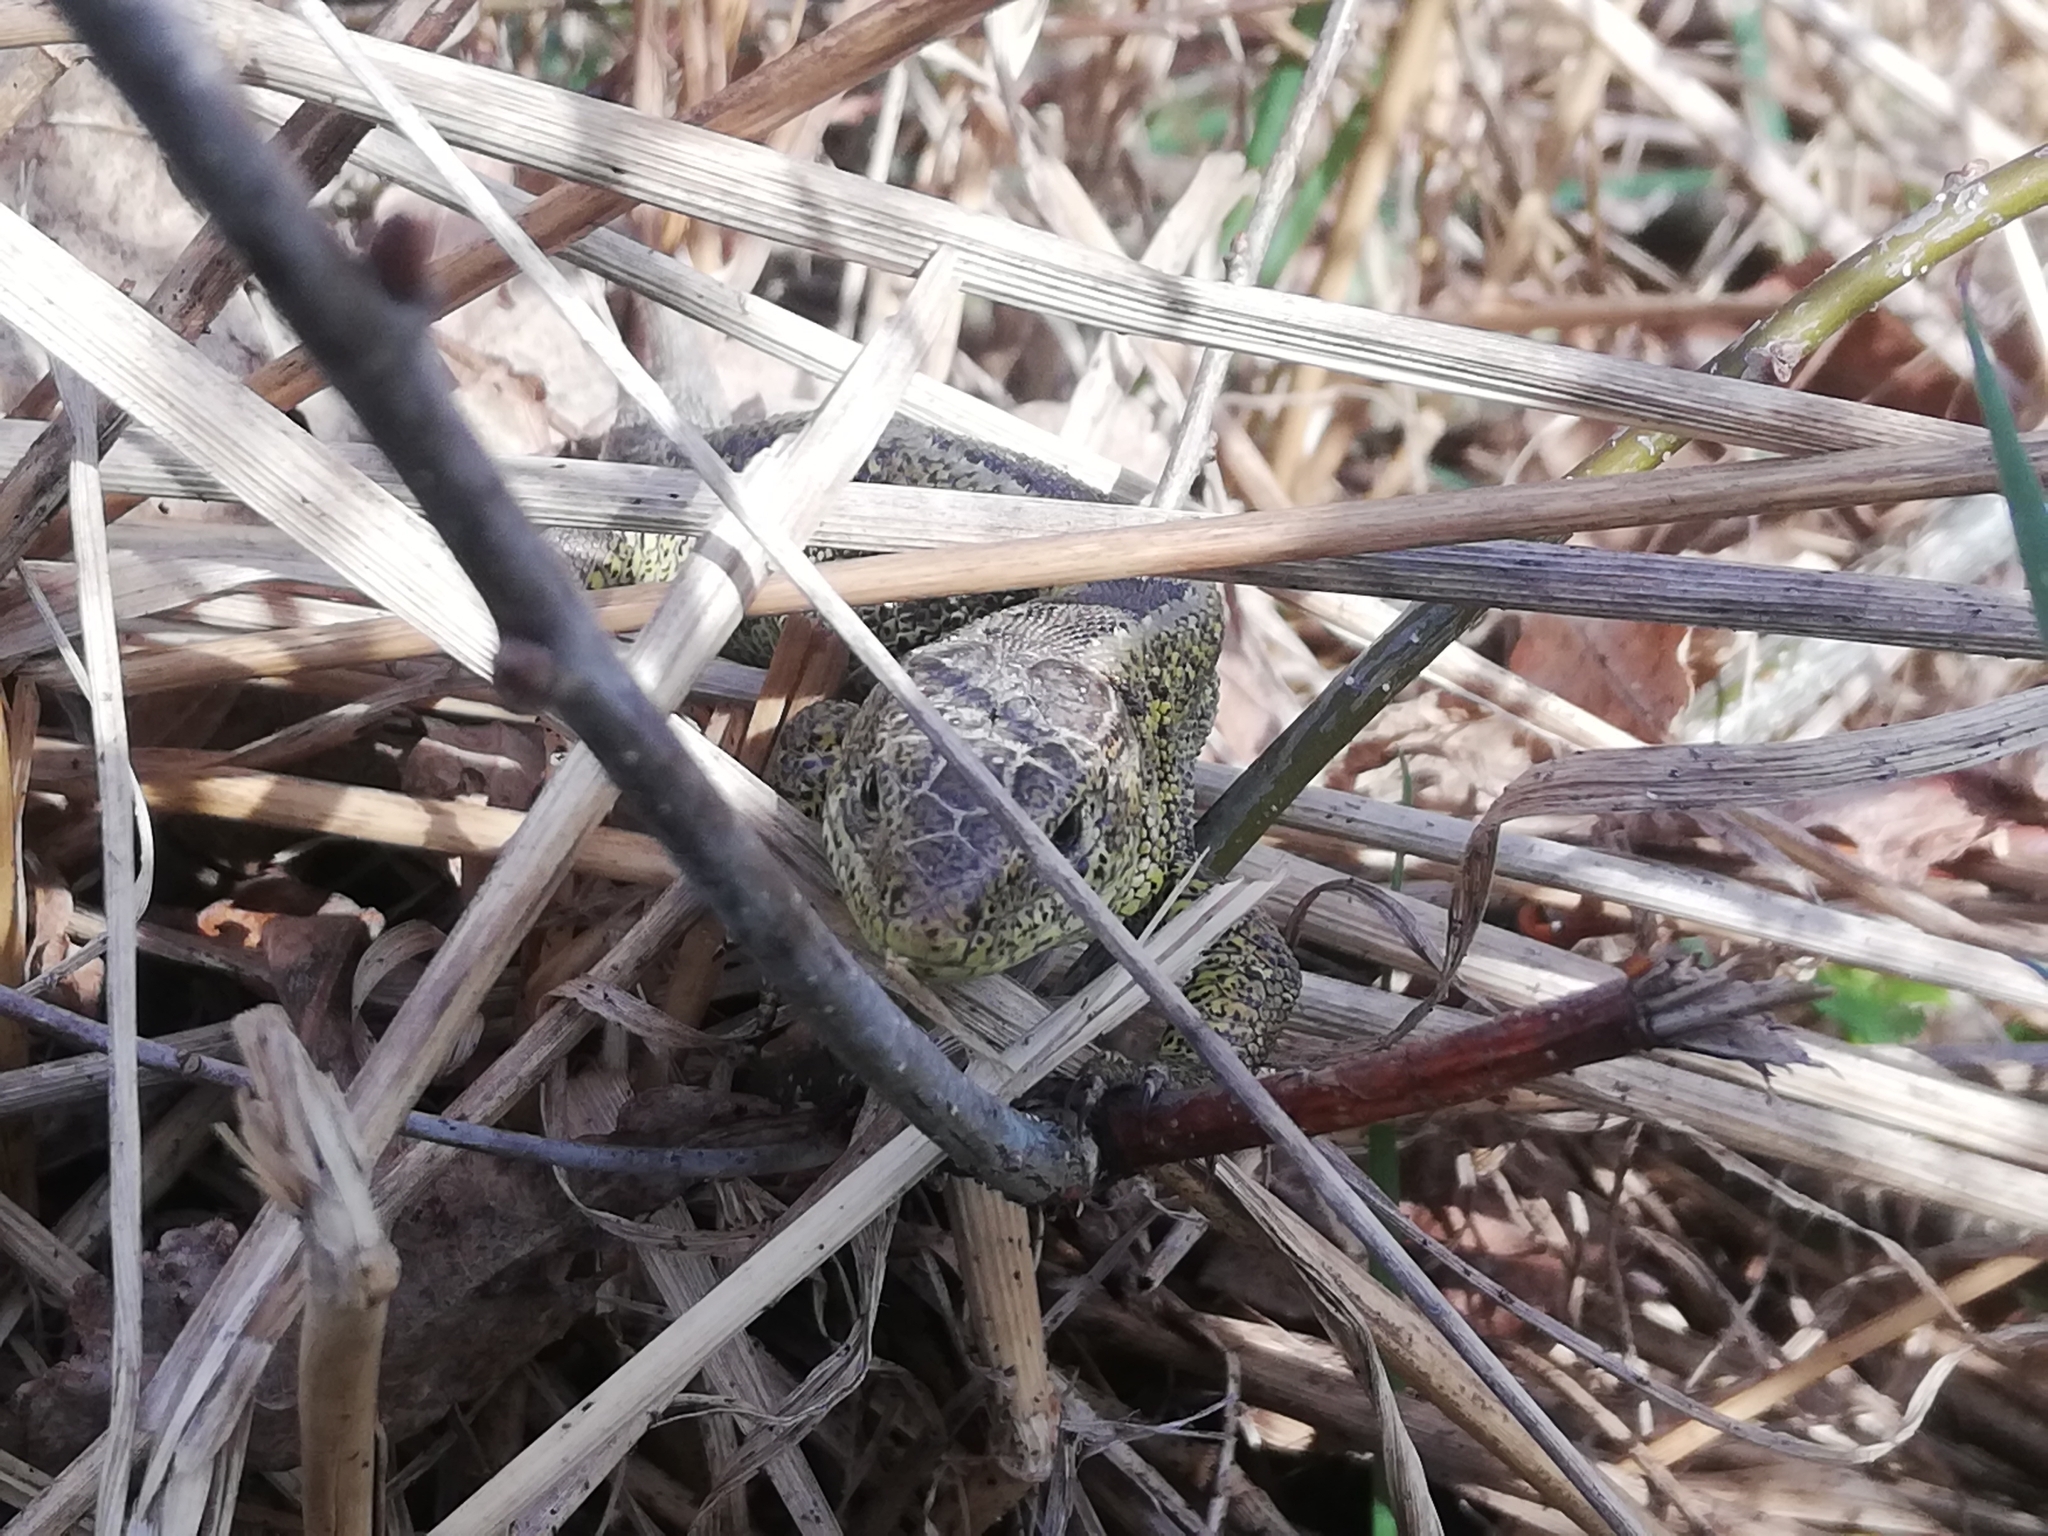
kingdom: Animalia
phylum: Chordata
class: Squamata
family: Lacertidae
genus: Lacerta
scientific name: Lacerta agilis
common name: Sand lizard
